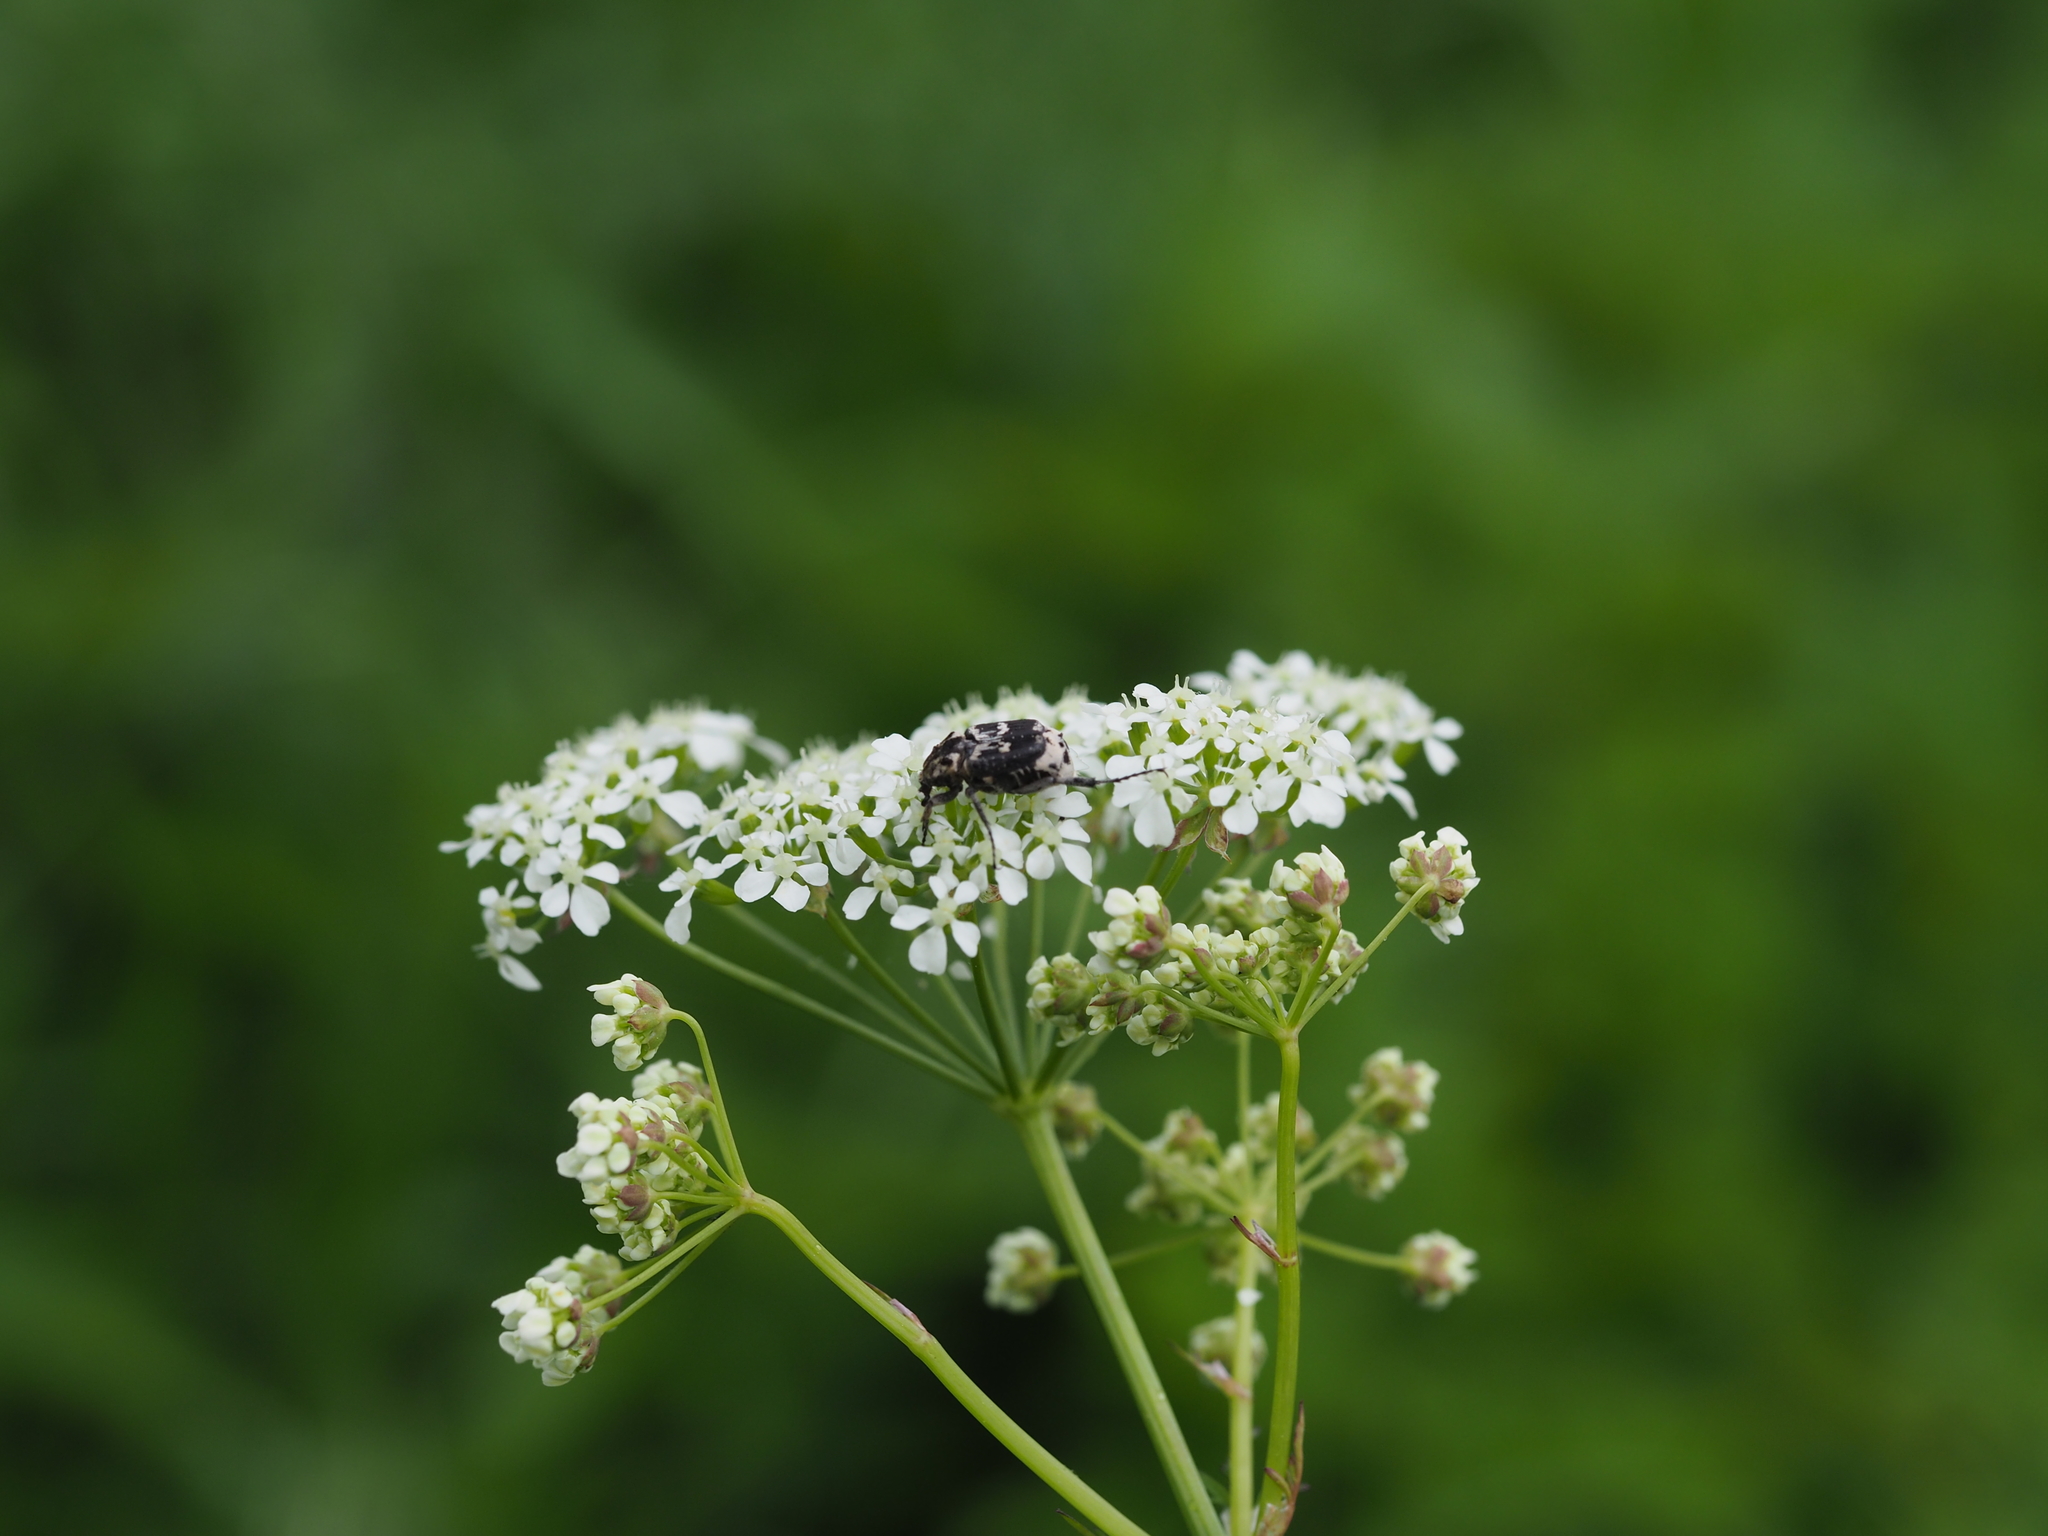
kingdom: Animalia
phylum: Arthropoda
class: Insecta
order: Coleoptera
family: Scarabaeidae
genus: Valgus
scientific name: Valgus hemipterus
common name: Bug flower chafer
